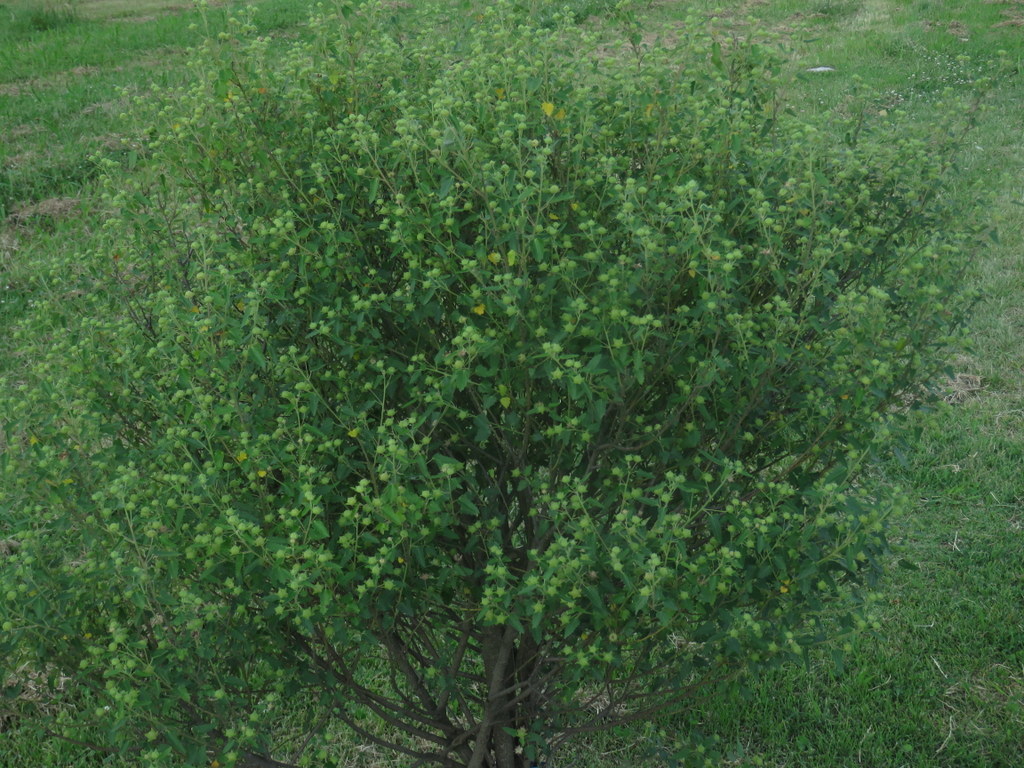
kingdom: Plantae
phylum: Tracheophyta
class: Magnoliopsida
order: Malvales
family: Malvaceae
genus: Pavonia
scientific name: Pavonia hastata
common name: Spearleaf swampmallow
